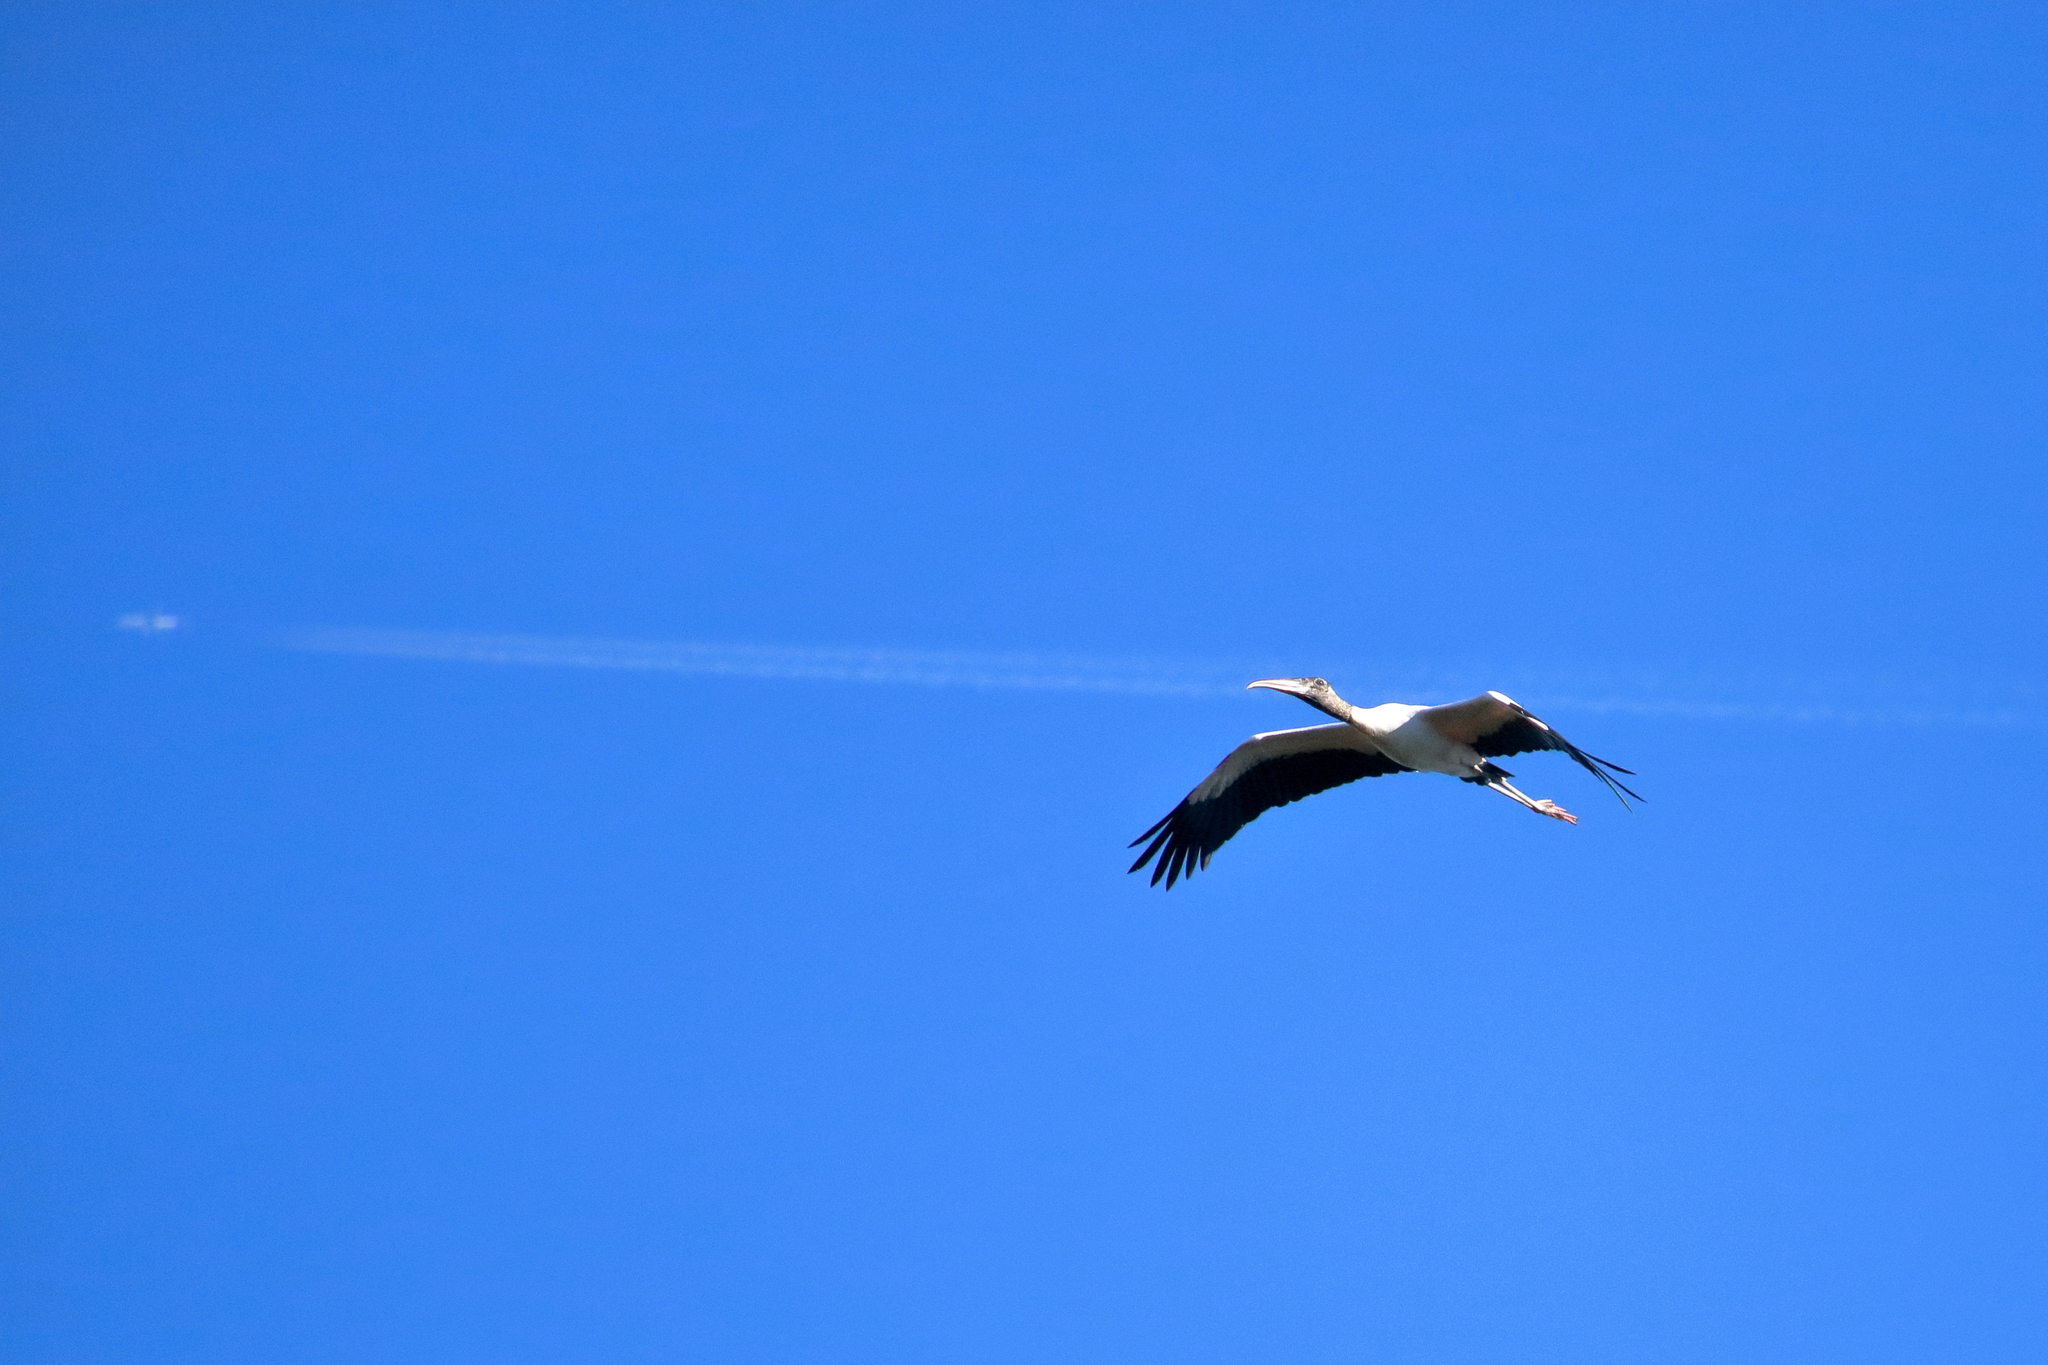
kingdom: Animalia
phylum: Chordata
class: Aves
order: Ciconiiformes
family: Ciconiidae
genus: Mycteria
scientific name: Mycteria americana
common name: Wood stork
